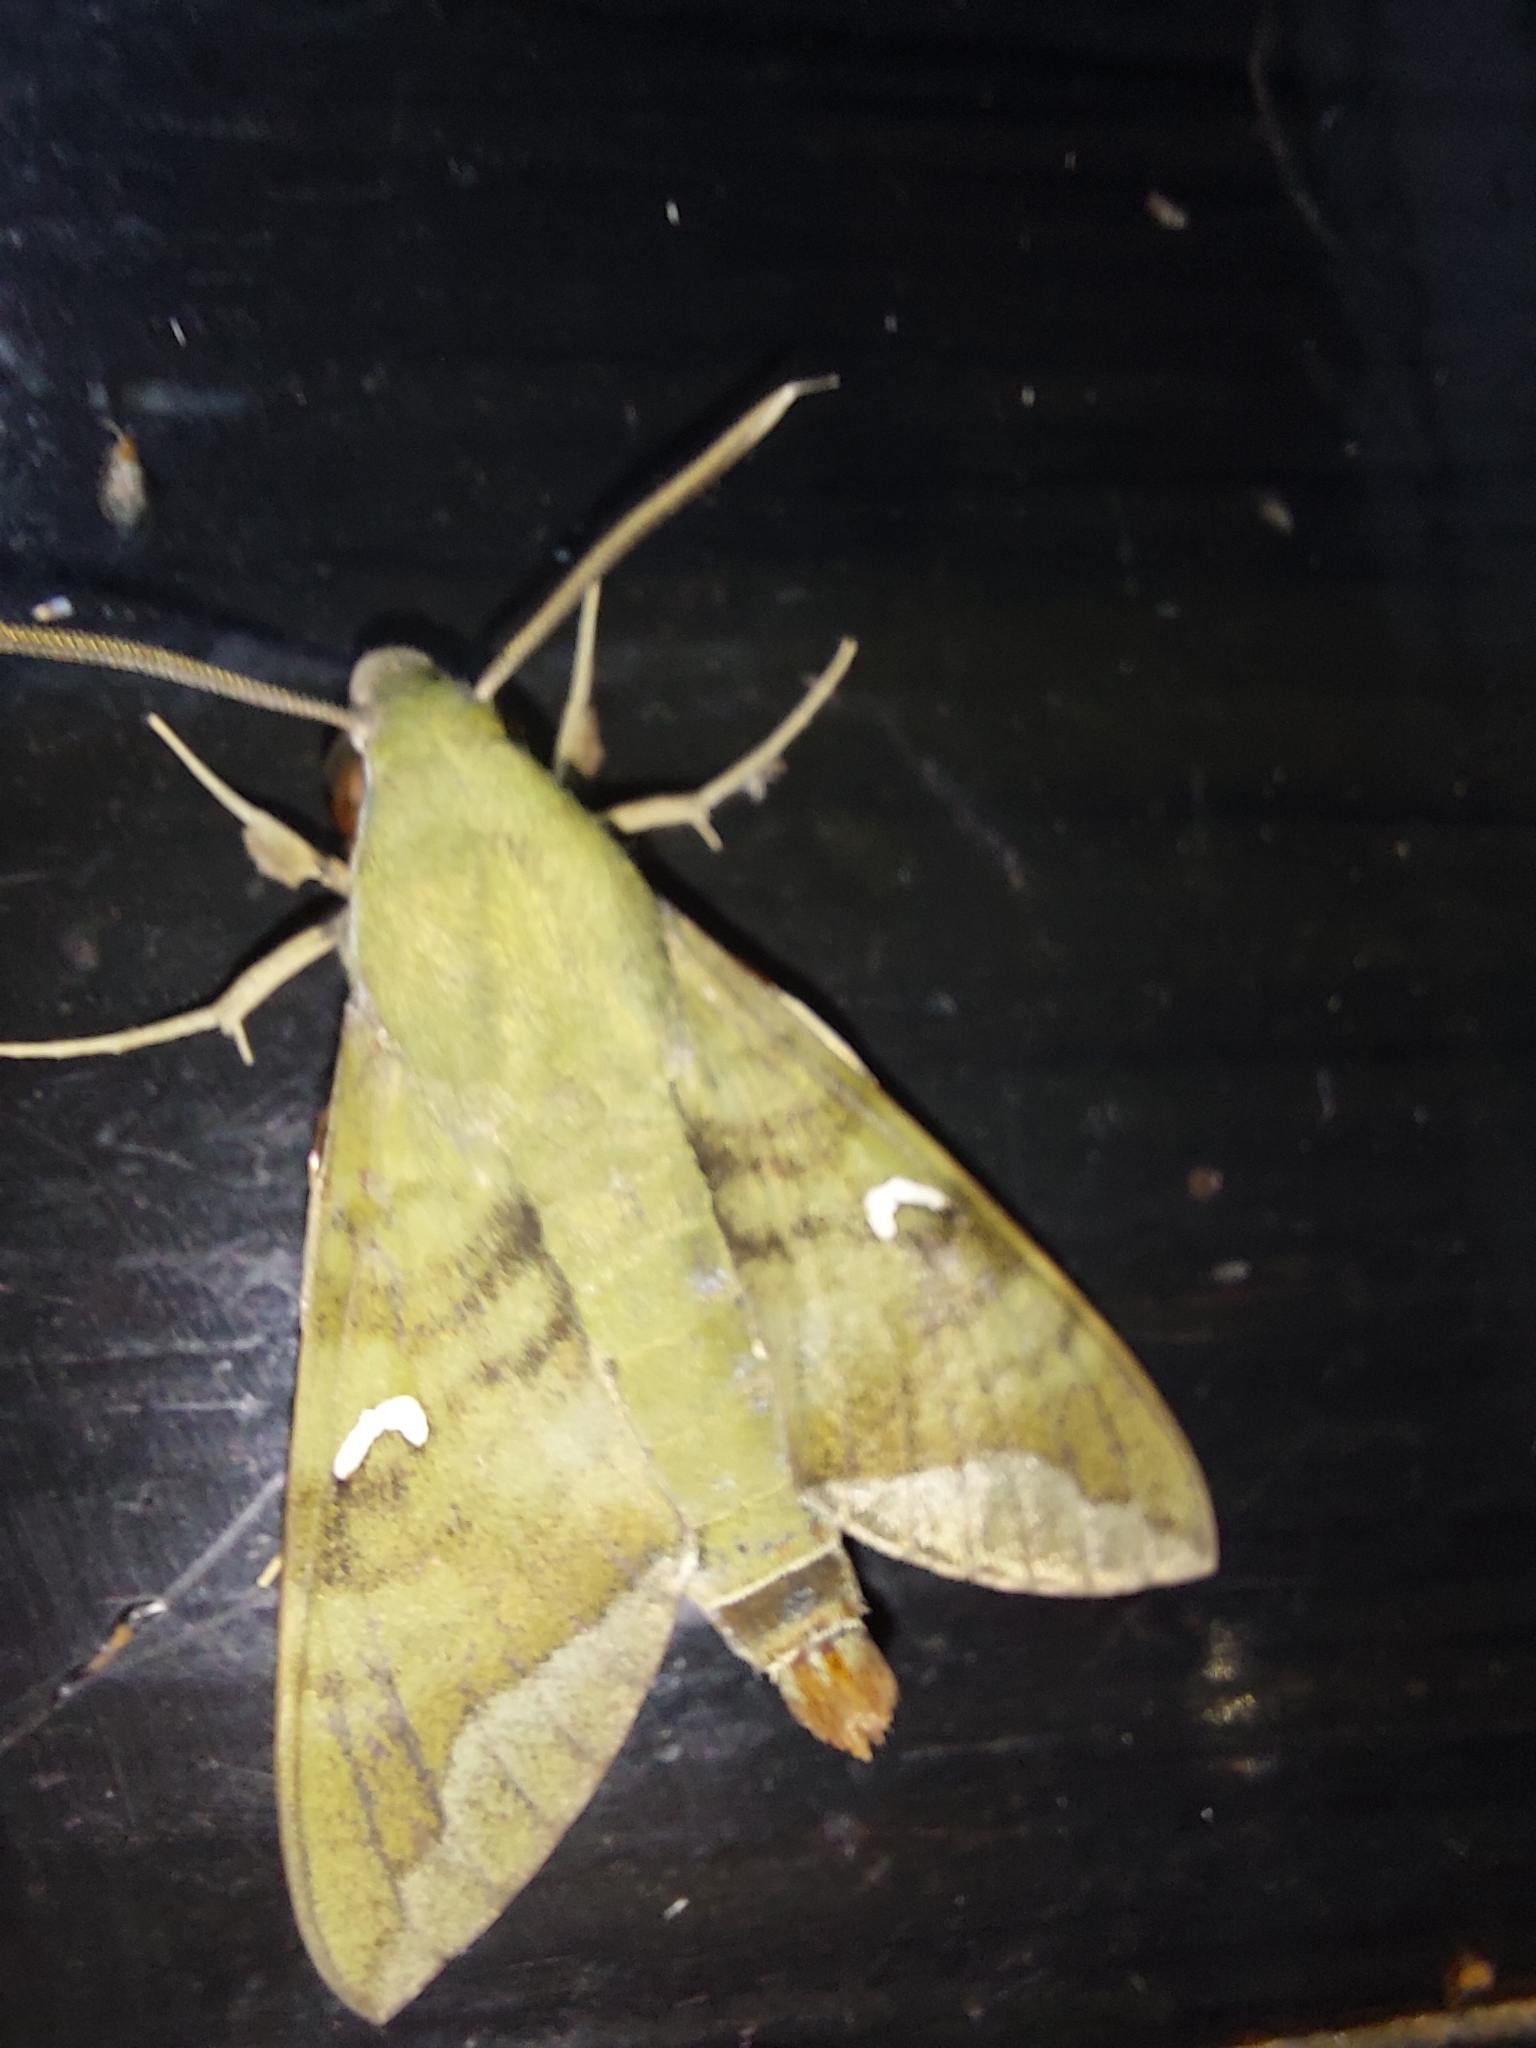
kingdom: Animalia
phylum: Arthropoda
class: Insecta
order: Lepidoptera
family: Sphingidae
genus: Nephele
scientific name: Nephele comma
